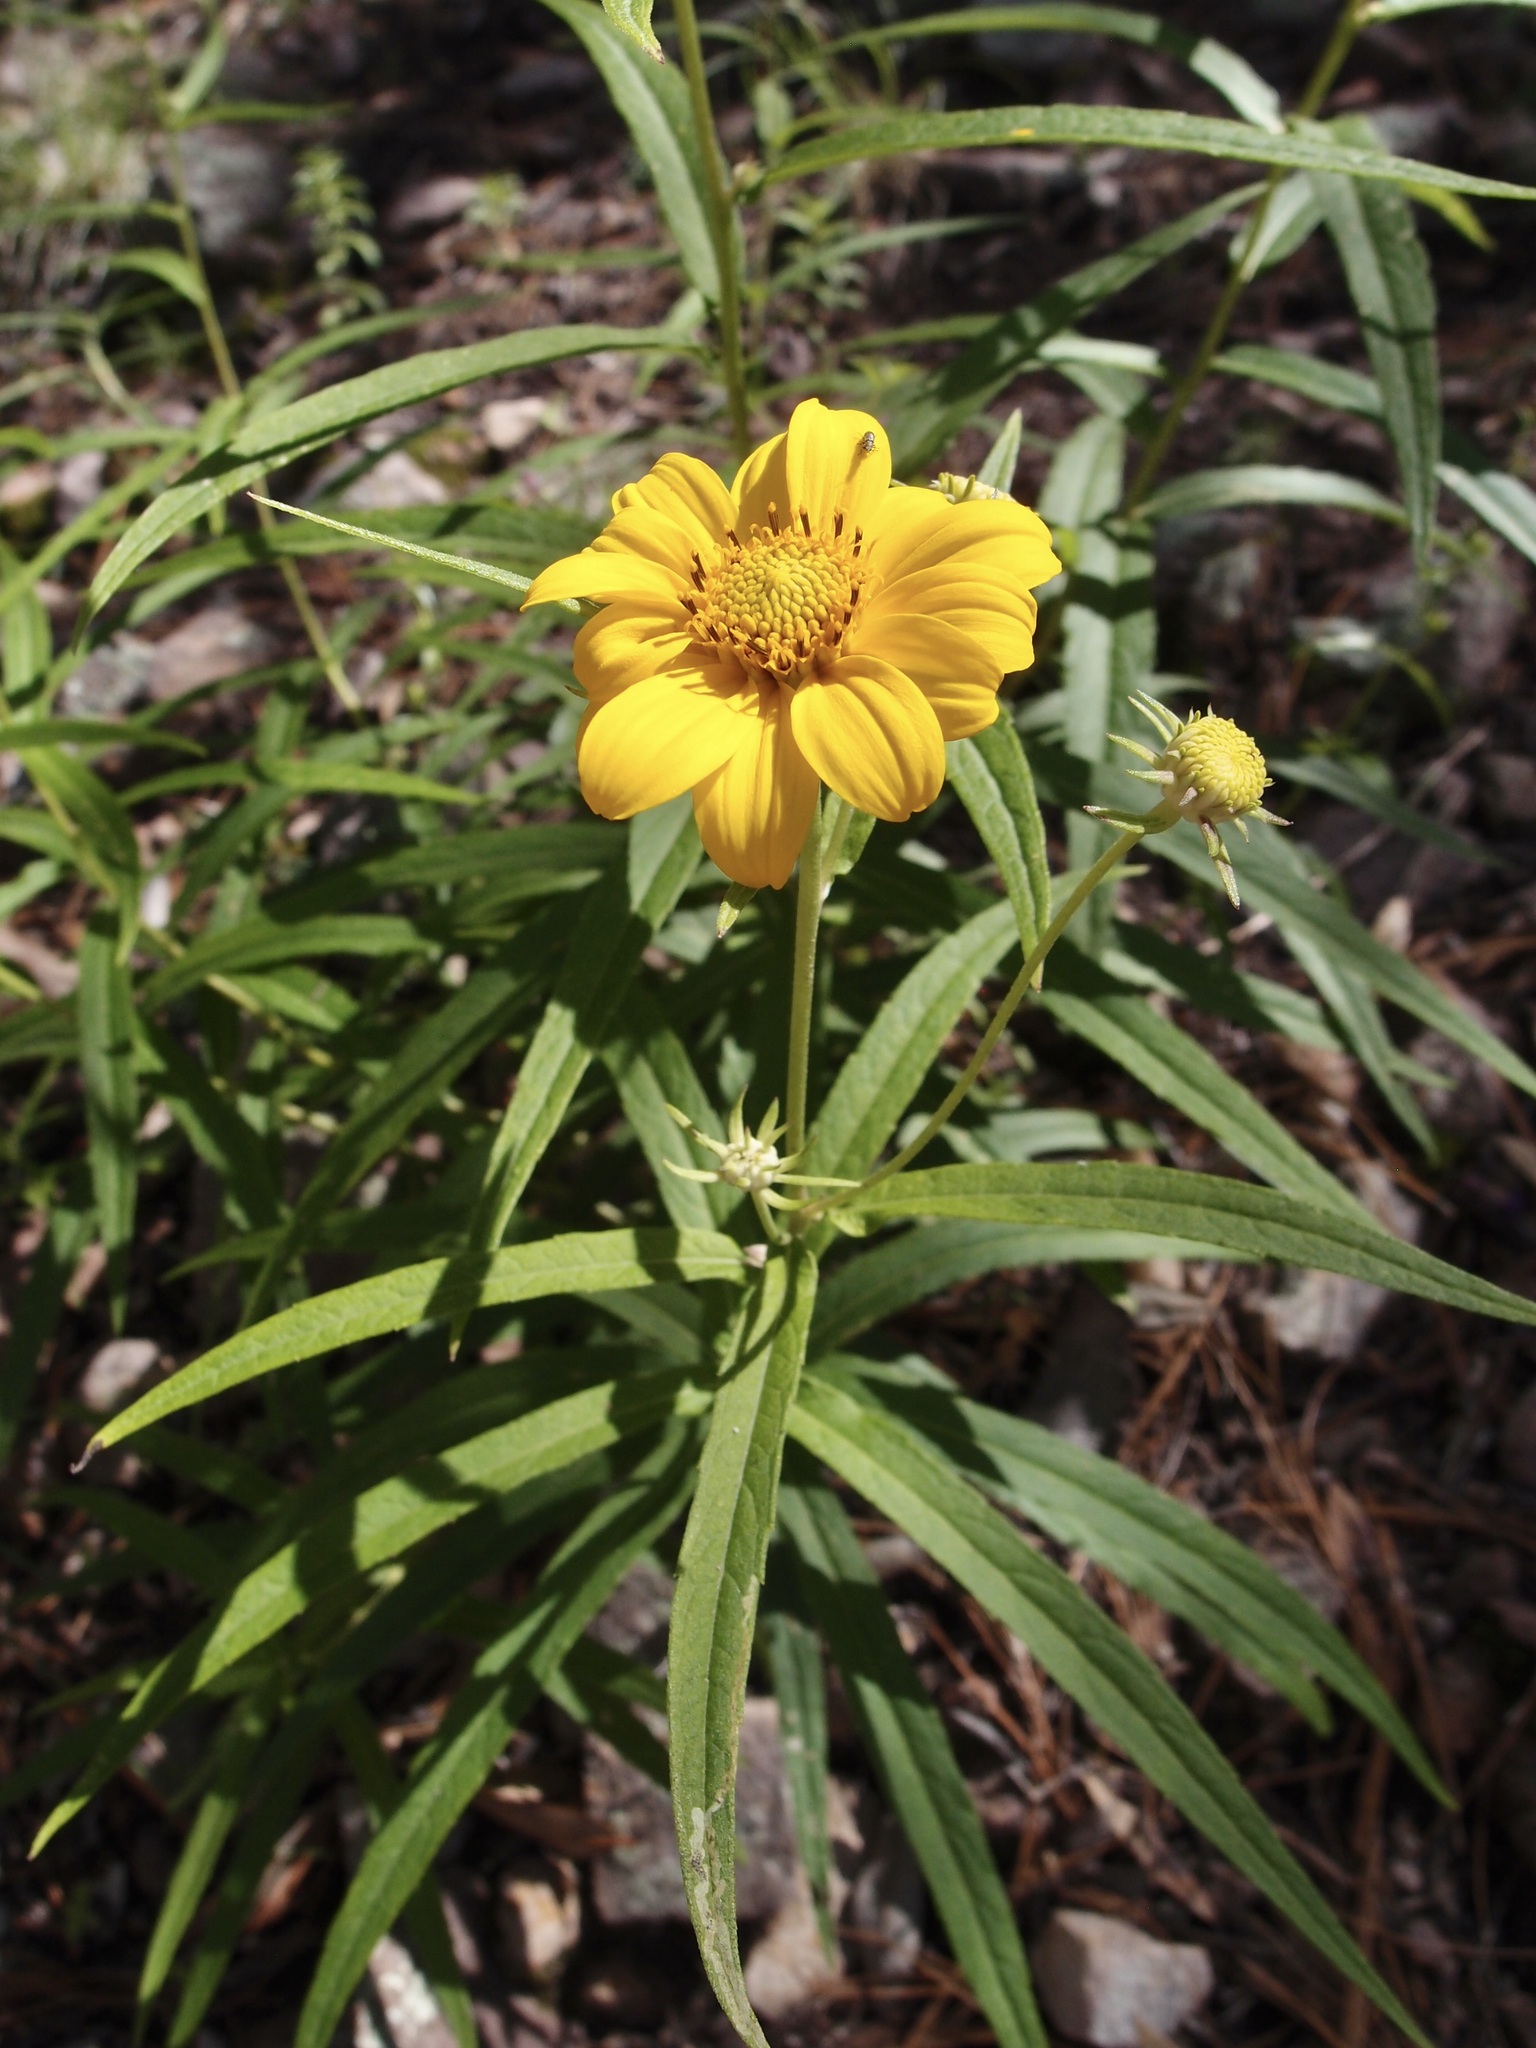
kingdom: Plantae
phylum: Tracheophyta
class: Magnoliopsida
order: Asterales
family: Asteraceae
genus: Verbesina
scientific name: Verbesina longifolia
